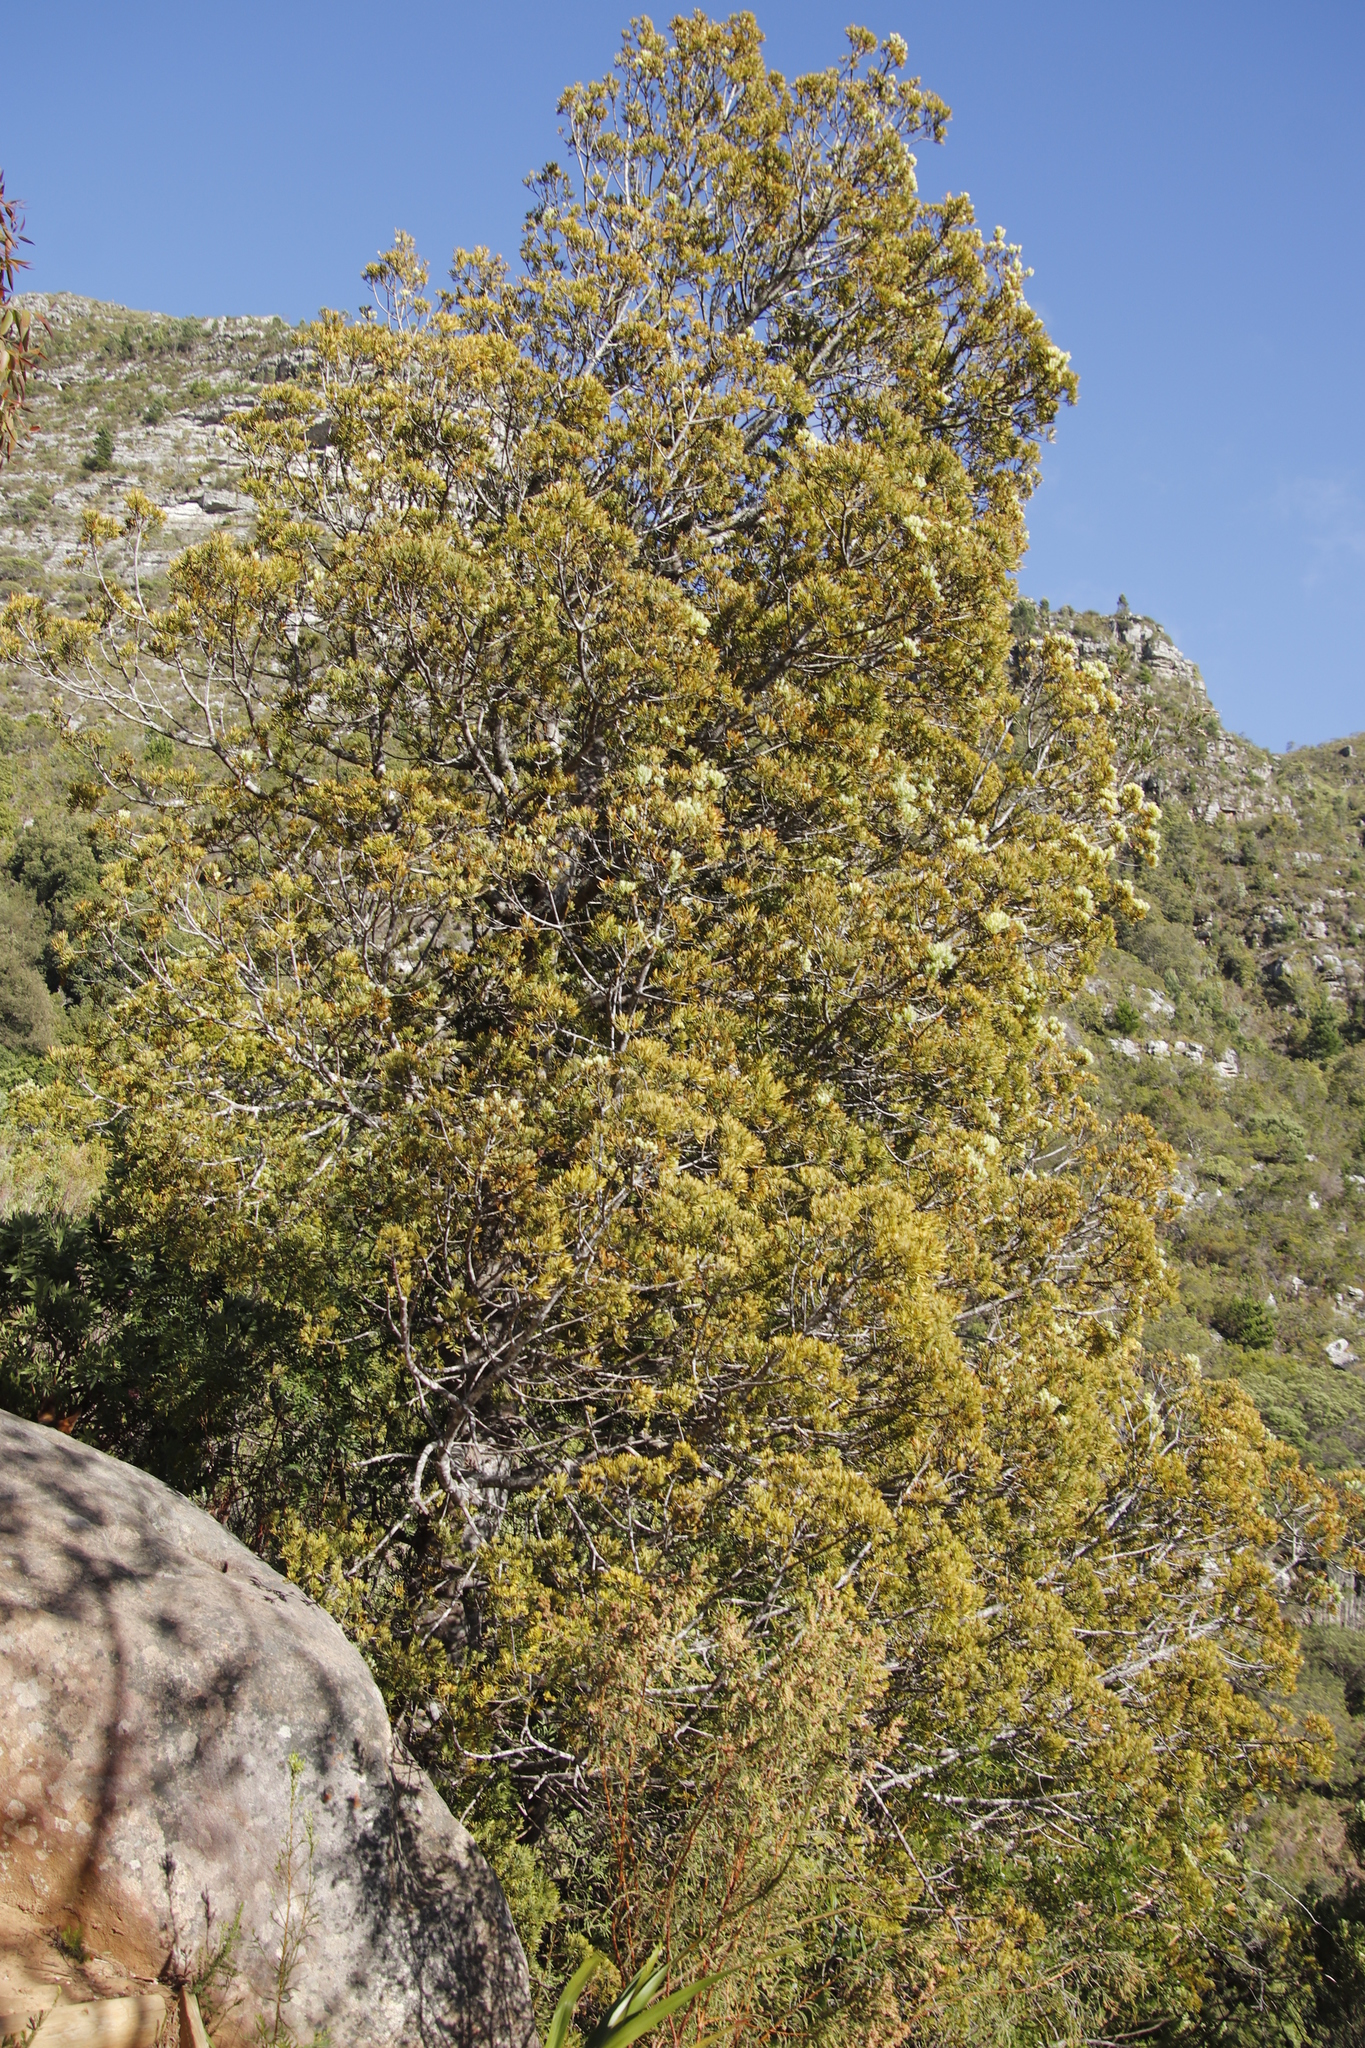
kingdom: Plantae
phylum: Tracheophyta
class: Pinopsida
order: Pinales
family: Podocarpaceae
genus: Afrocarpus
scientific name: Afrocarpus falcatus
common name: Bastard yellowwood
